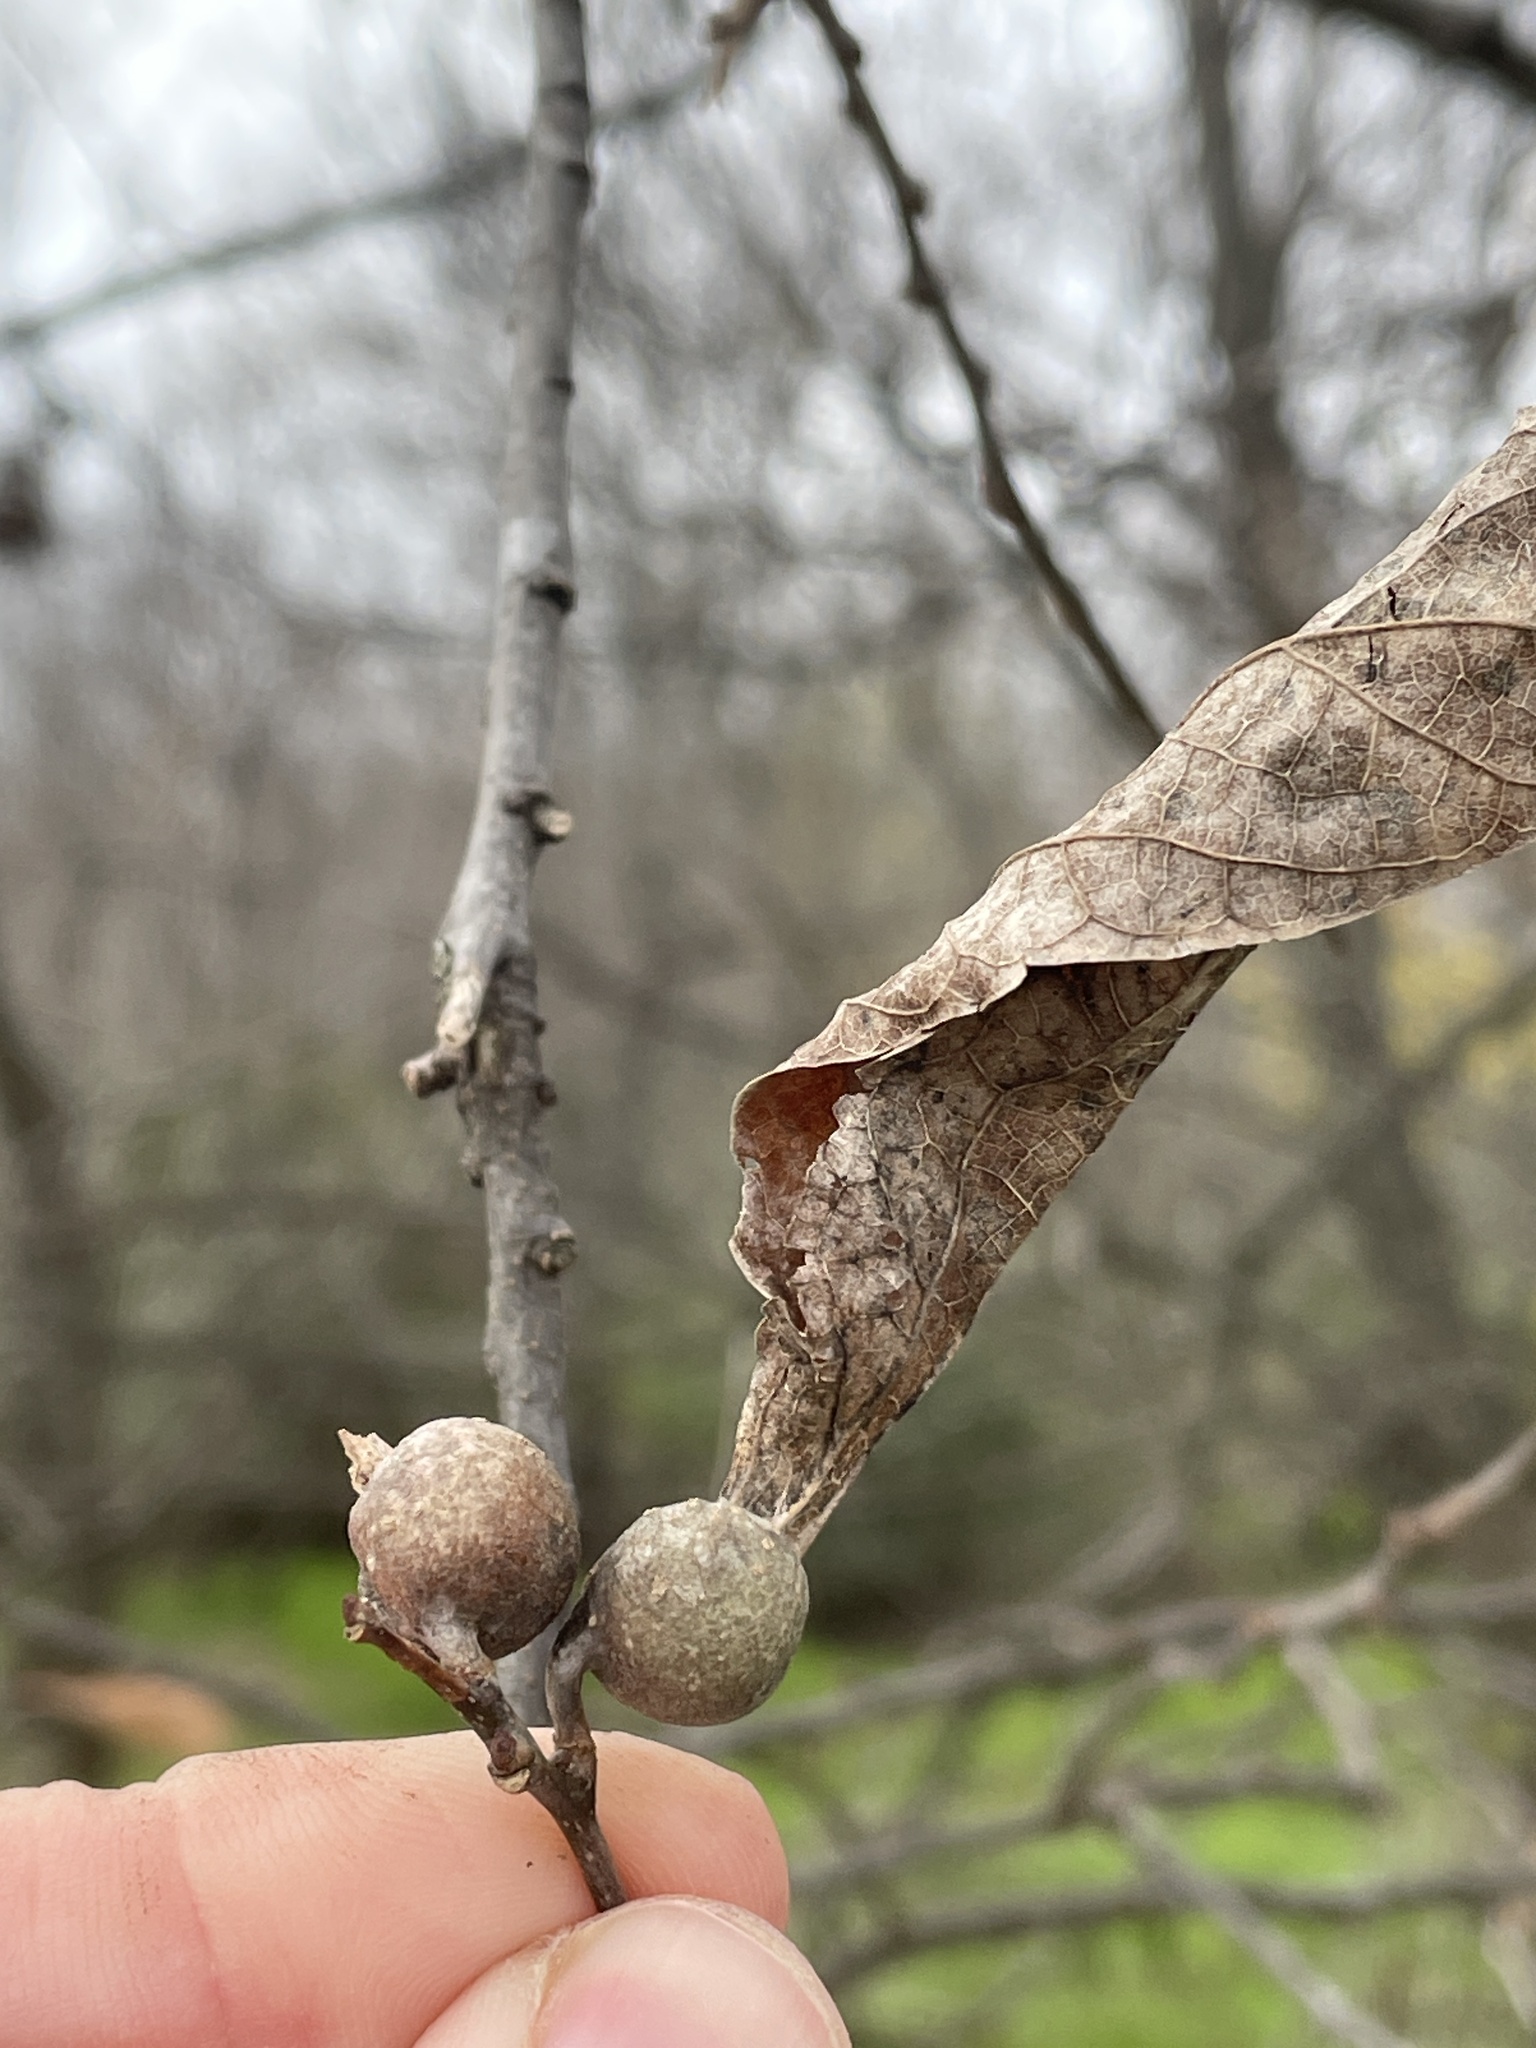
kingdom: Animalia
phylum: Arthropoda
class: Insecta
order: Hemiptera
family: Aphalaridae
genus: Pachypsylla
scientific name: Pachypsylla venusta
